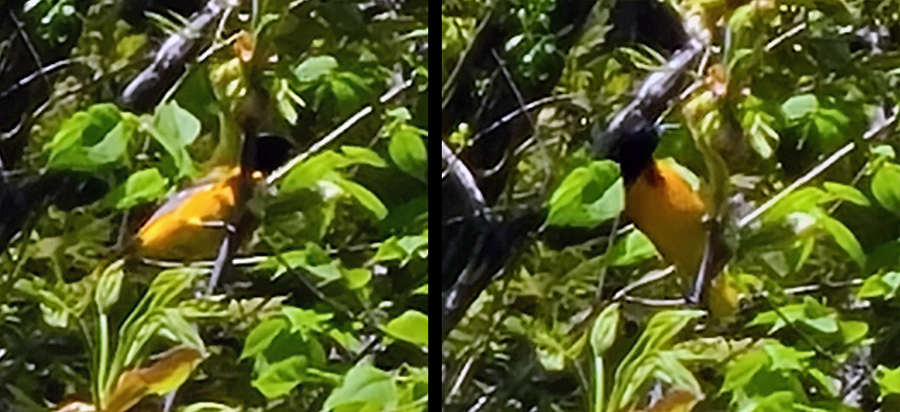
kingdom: Animalia
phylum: Chordata
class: Aves
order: Passeriformes
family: Icteridae
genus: Icterus
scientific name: Icterus galbula
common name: Baltimore oriole
